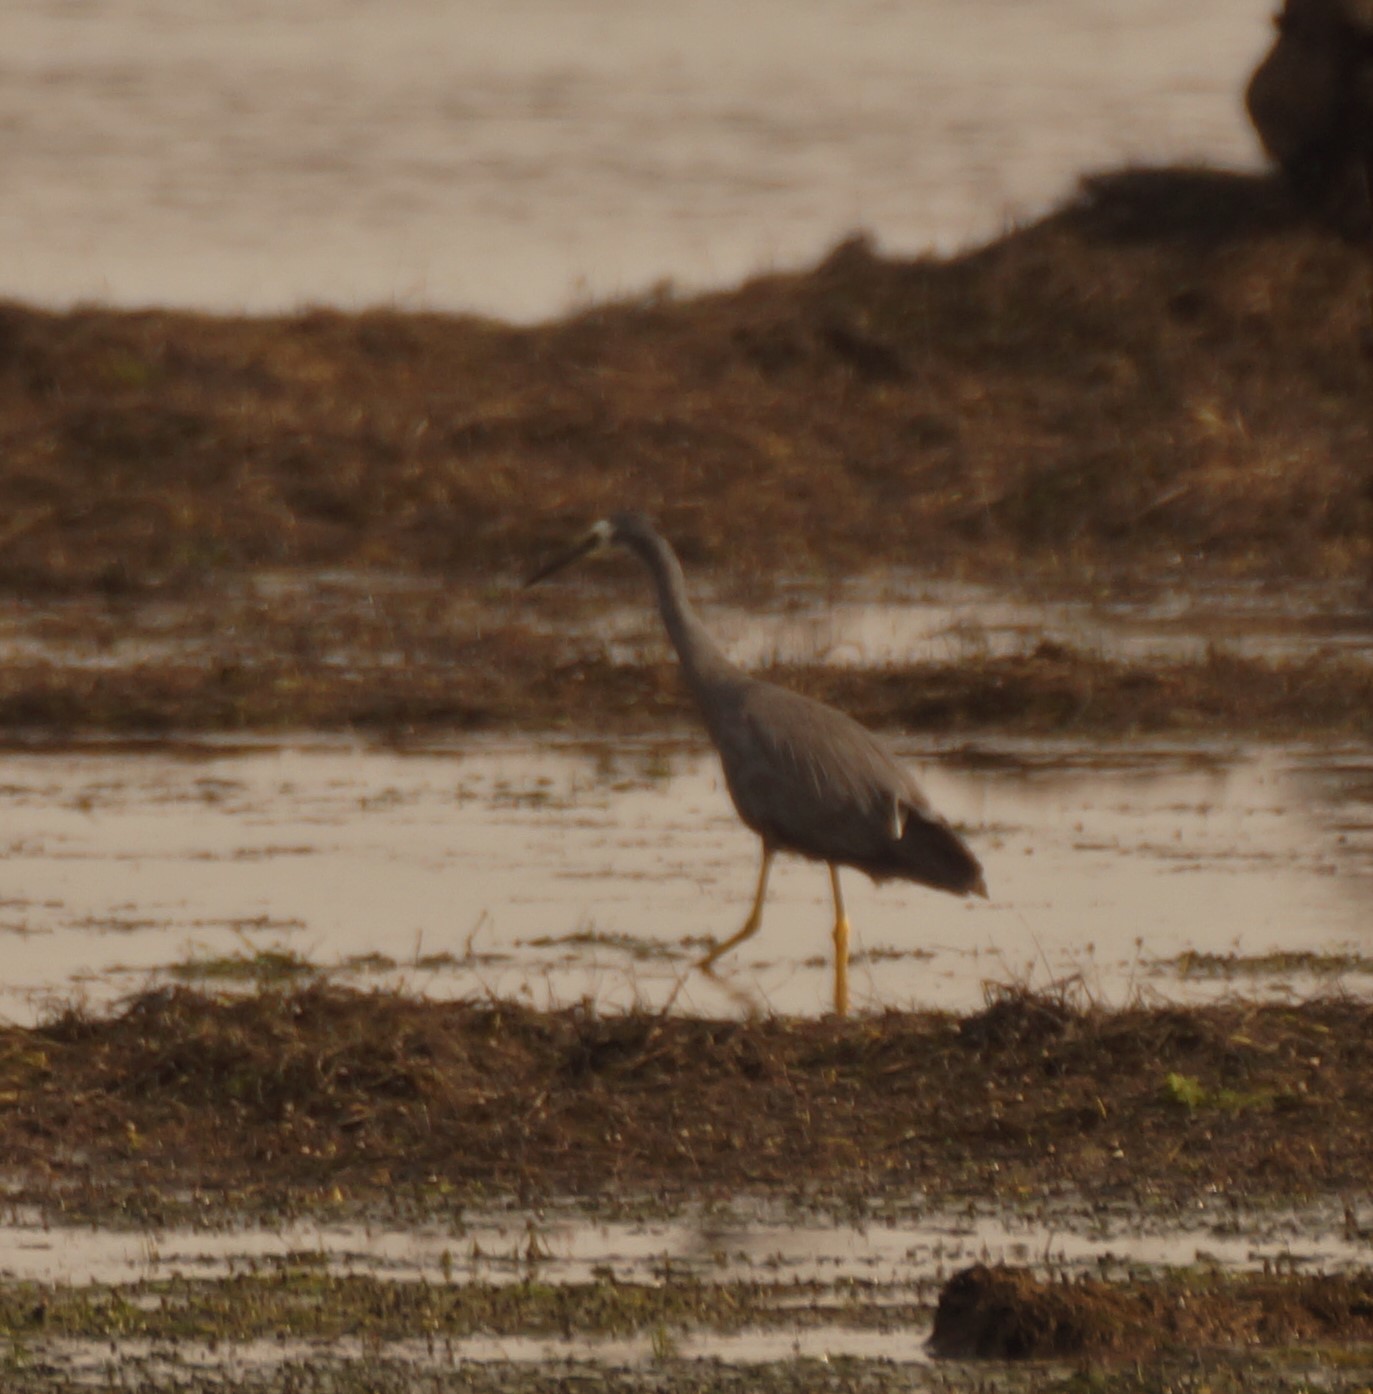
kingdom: Animalia
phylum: Chordata
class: Aves
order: Pelecaniformes
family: Ardeidae
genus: Egretta
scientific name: Egretta novaehollandiae
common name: White-faced heron
